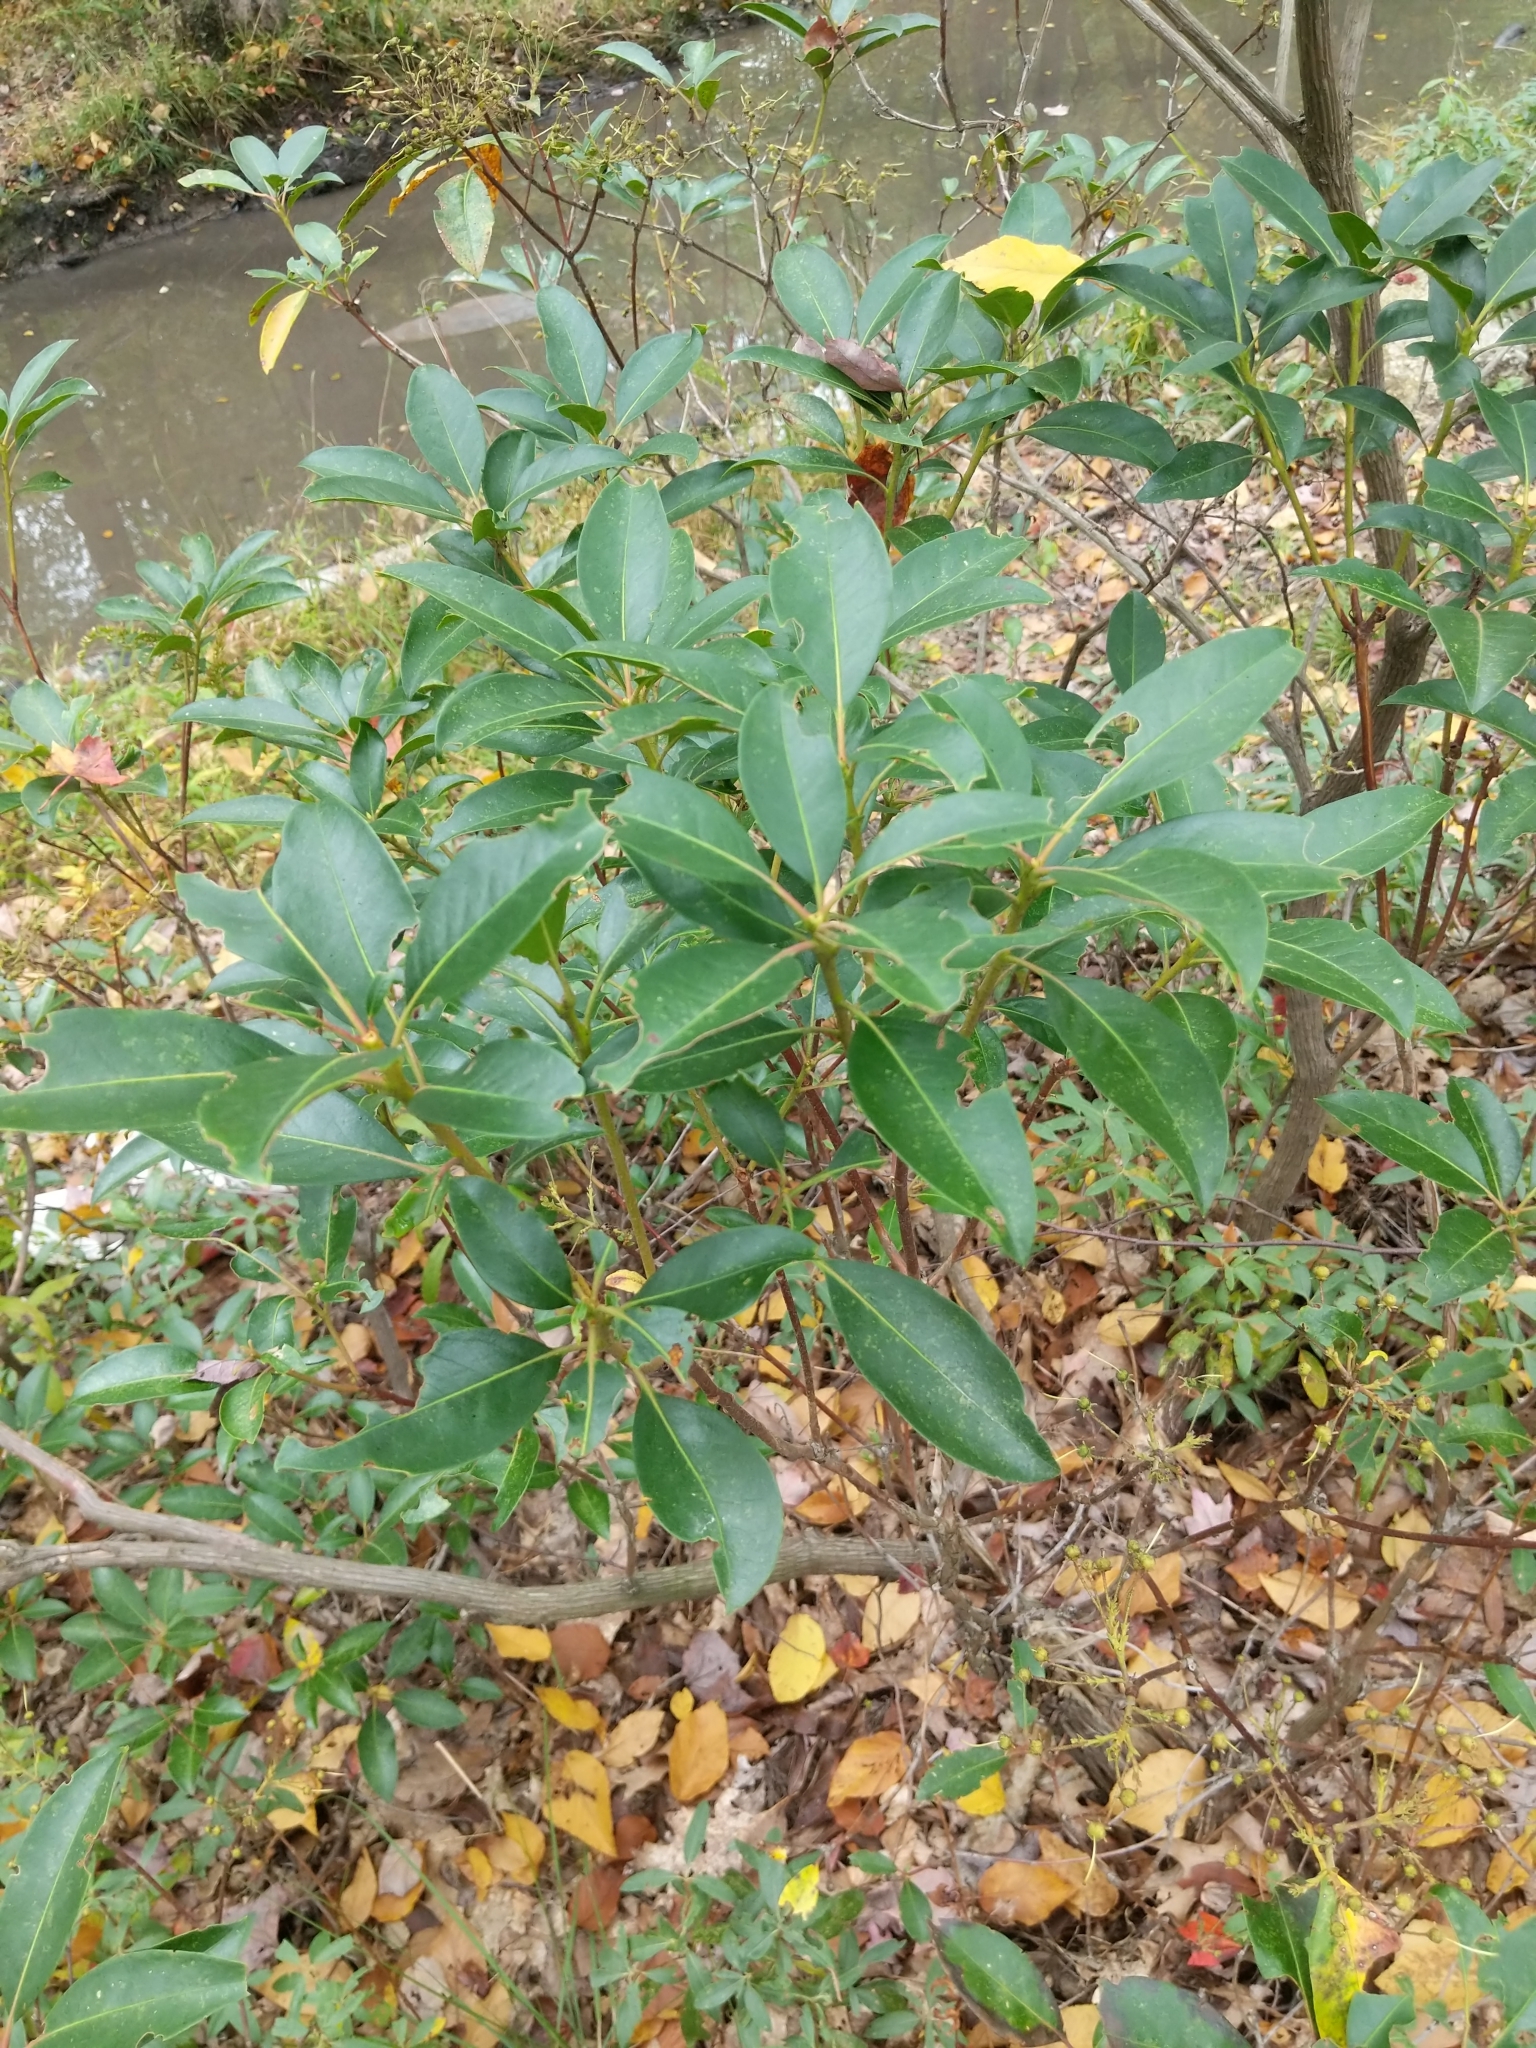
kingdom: Plantae
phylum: Tracheophyta
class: Magnoliopsida
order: Ericales
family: Ericaceae
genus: Kalmia
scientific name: Kalmia latifolia
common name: Mountain-laurel
